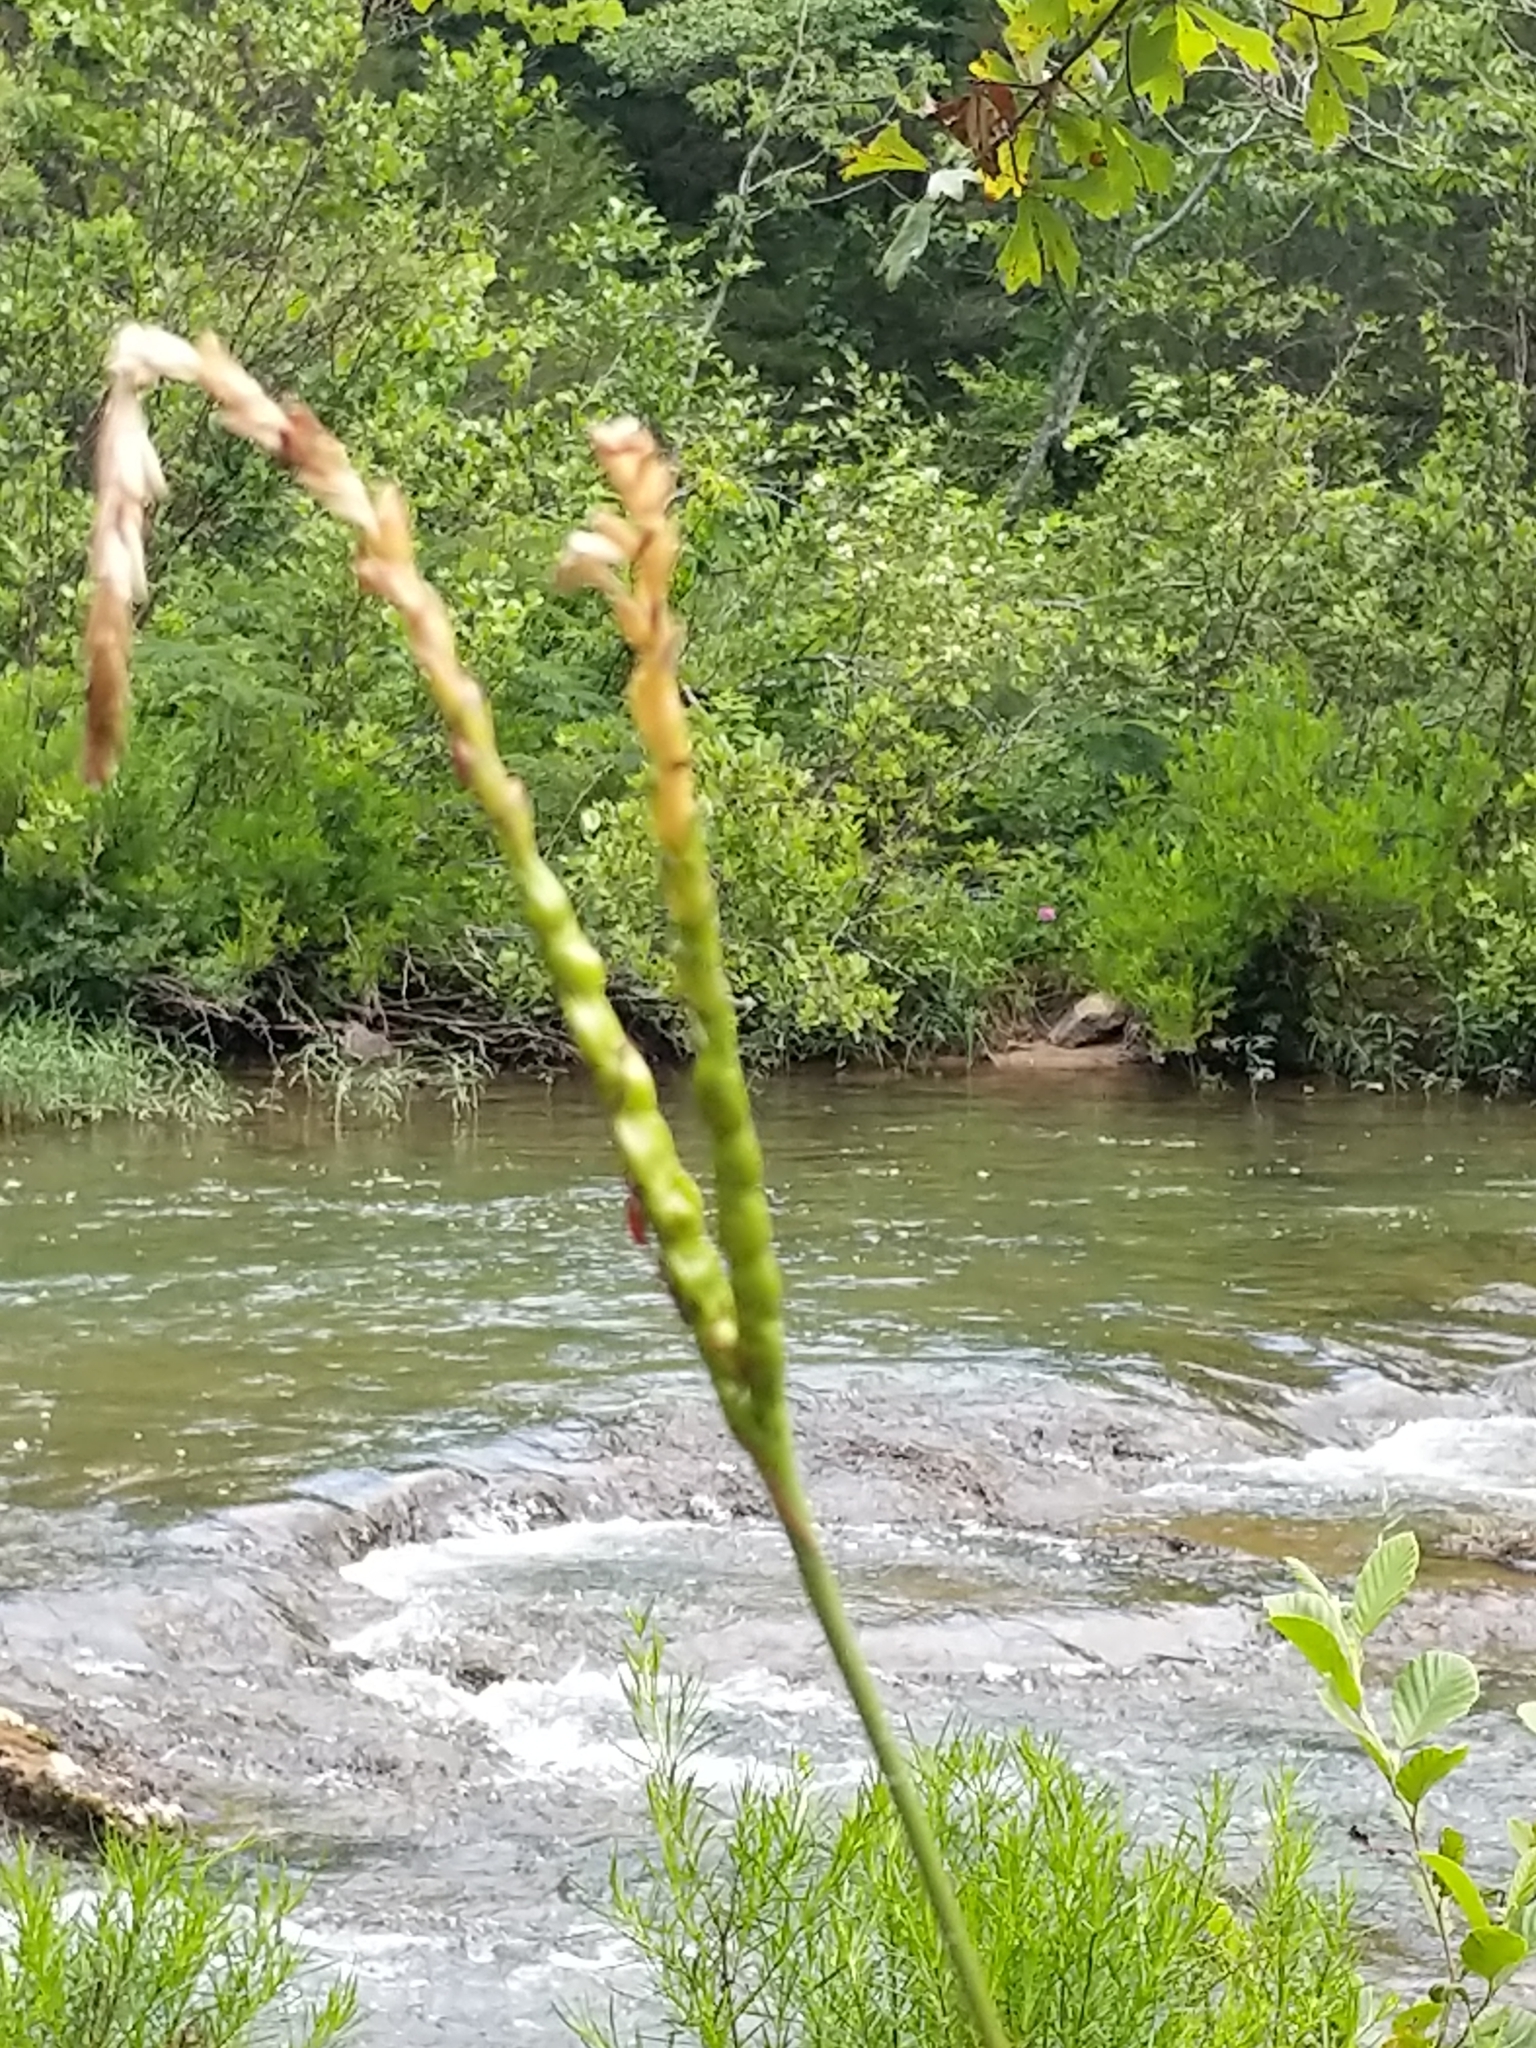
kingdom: Plantae
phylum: Tracheophyta
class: Liliopsida
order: Poales
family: Poaceae
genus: Tripsacum
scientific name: Tripsacum dactyloides
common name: Buffalo-grass
